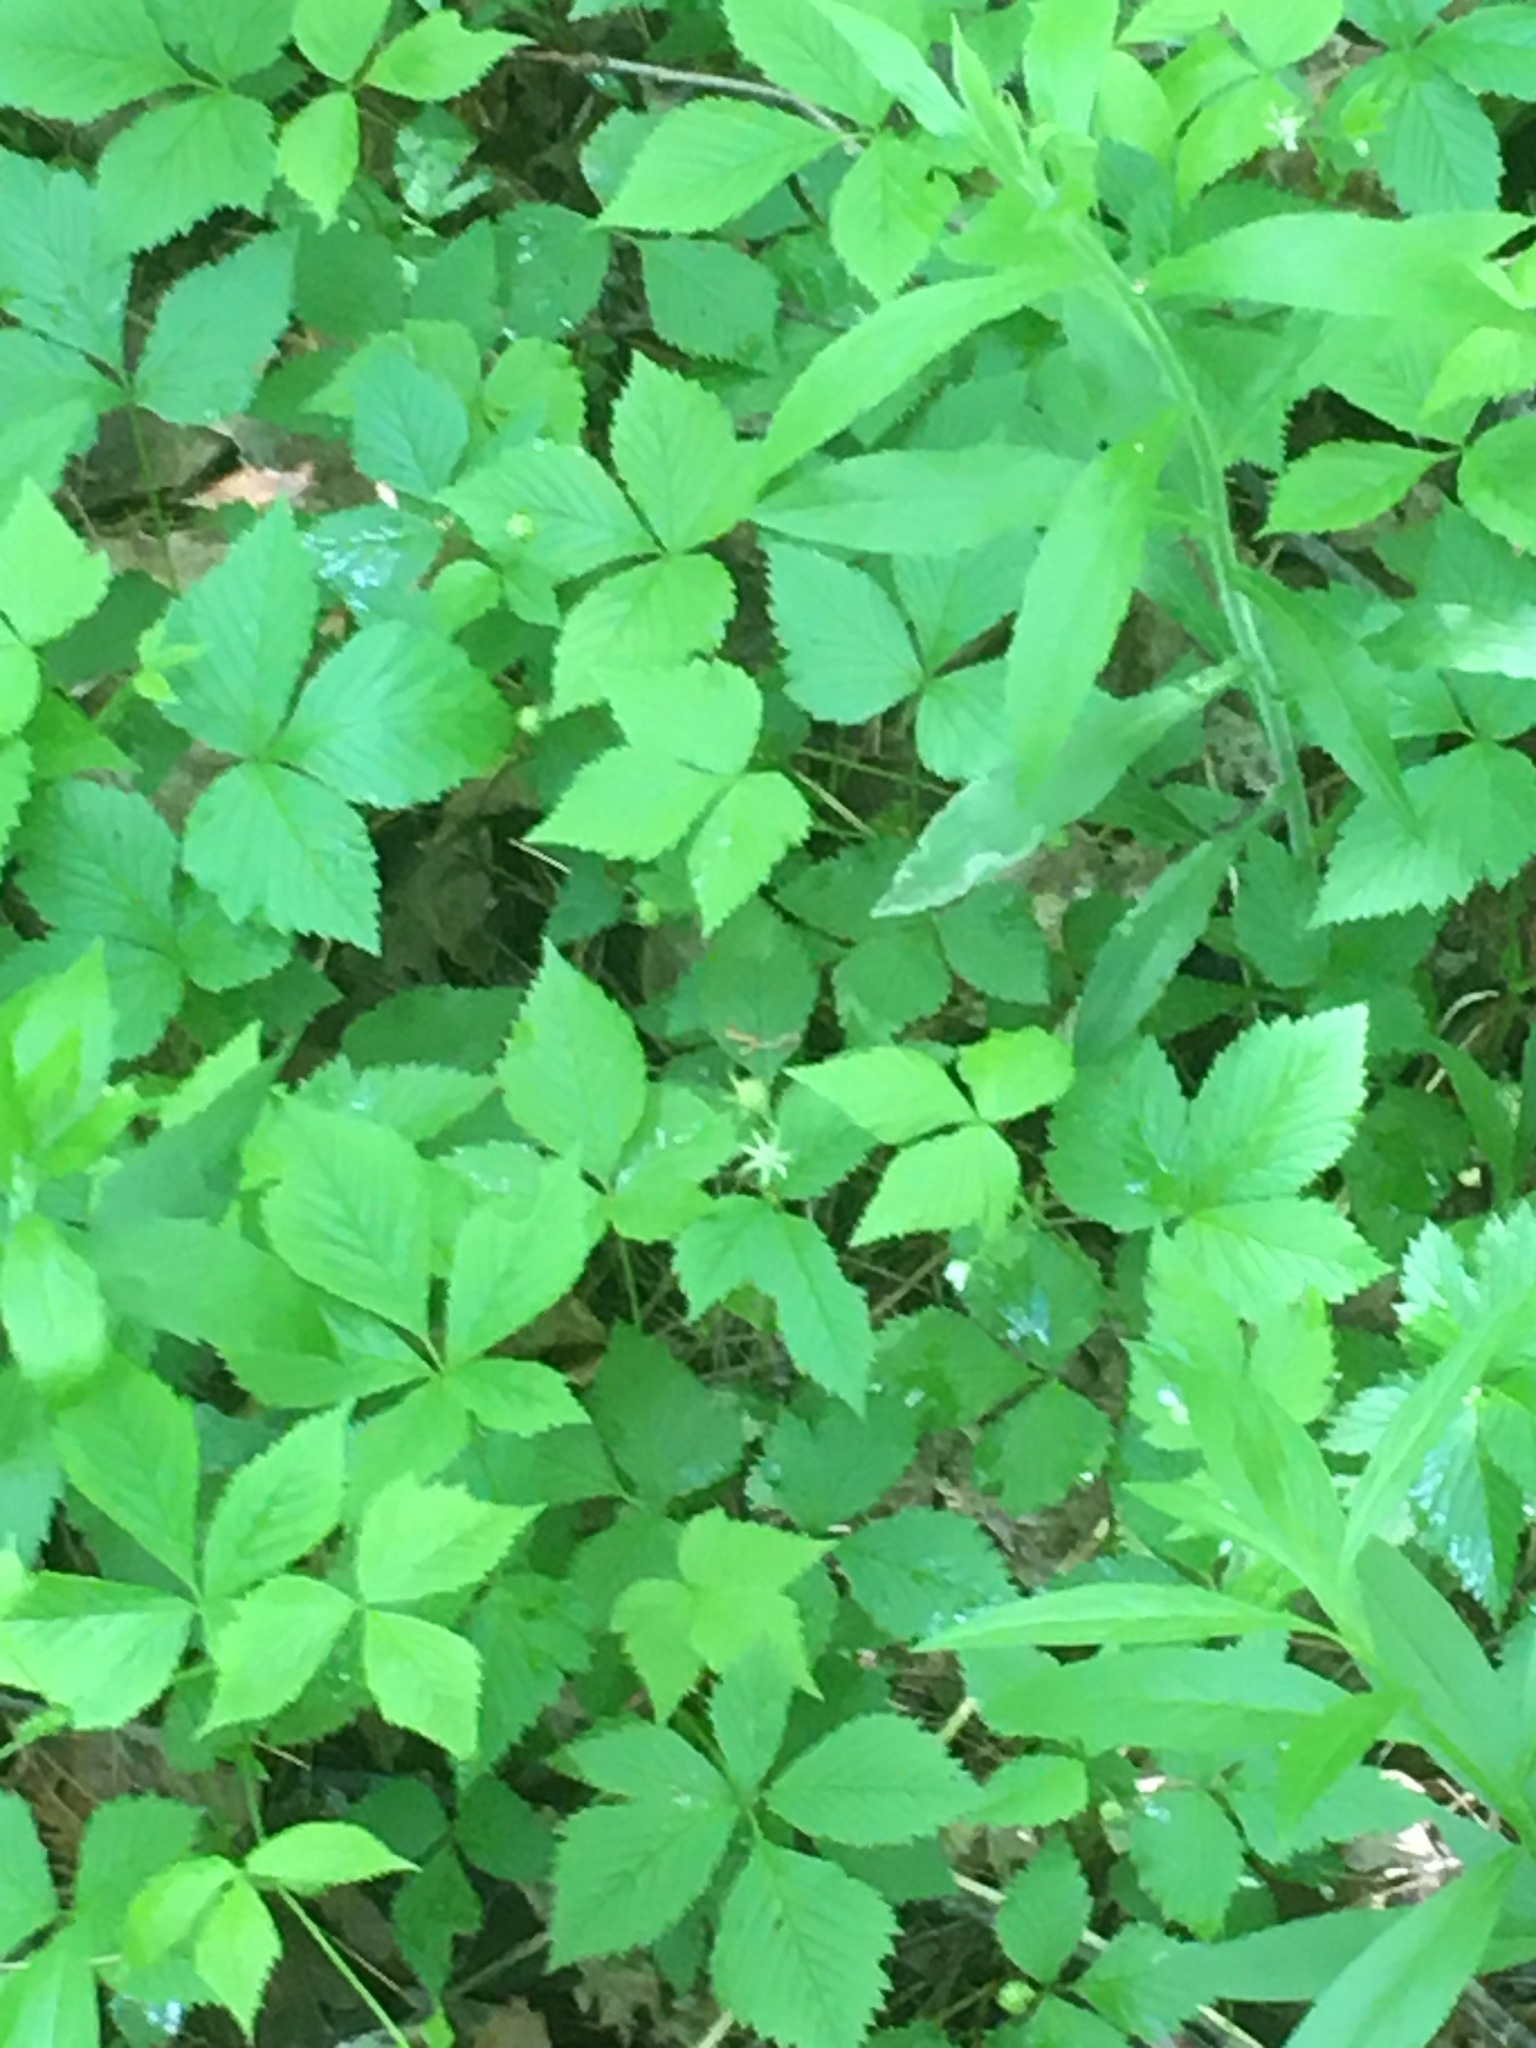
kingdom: Plantae
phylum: Tracheophyta
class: Magnoliopsida
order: Rosales
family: Rosaceae
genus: Rubus
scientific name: Rubus pubescens
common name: Dwarf raspberry
